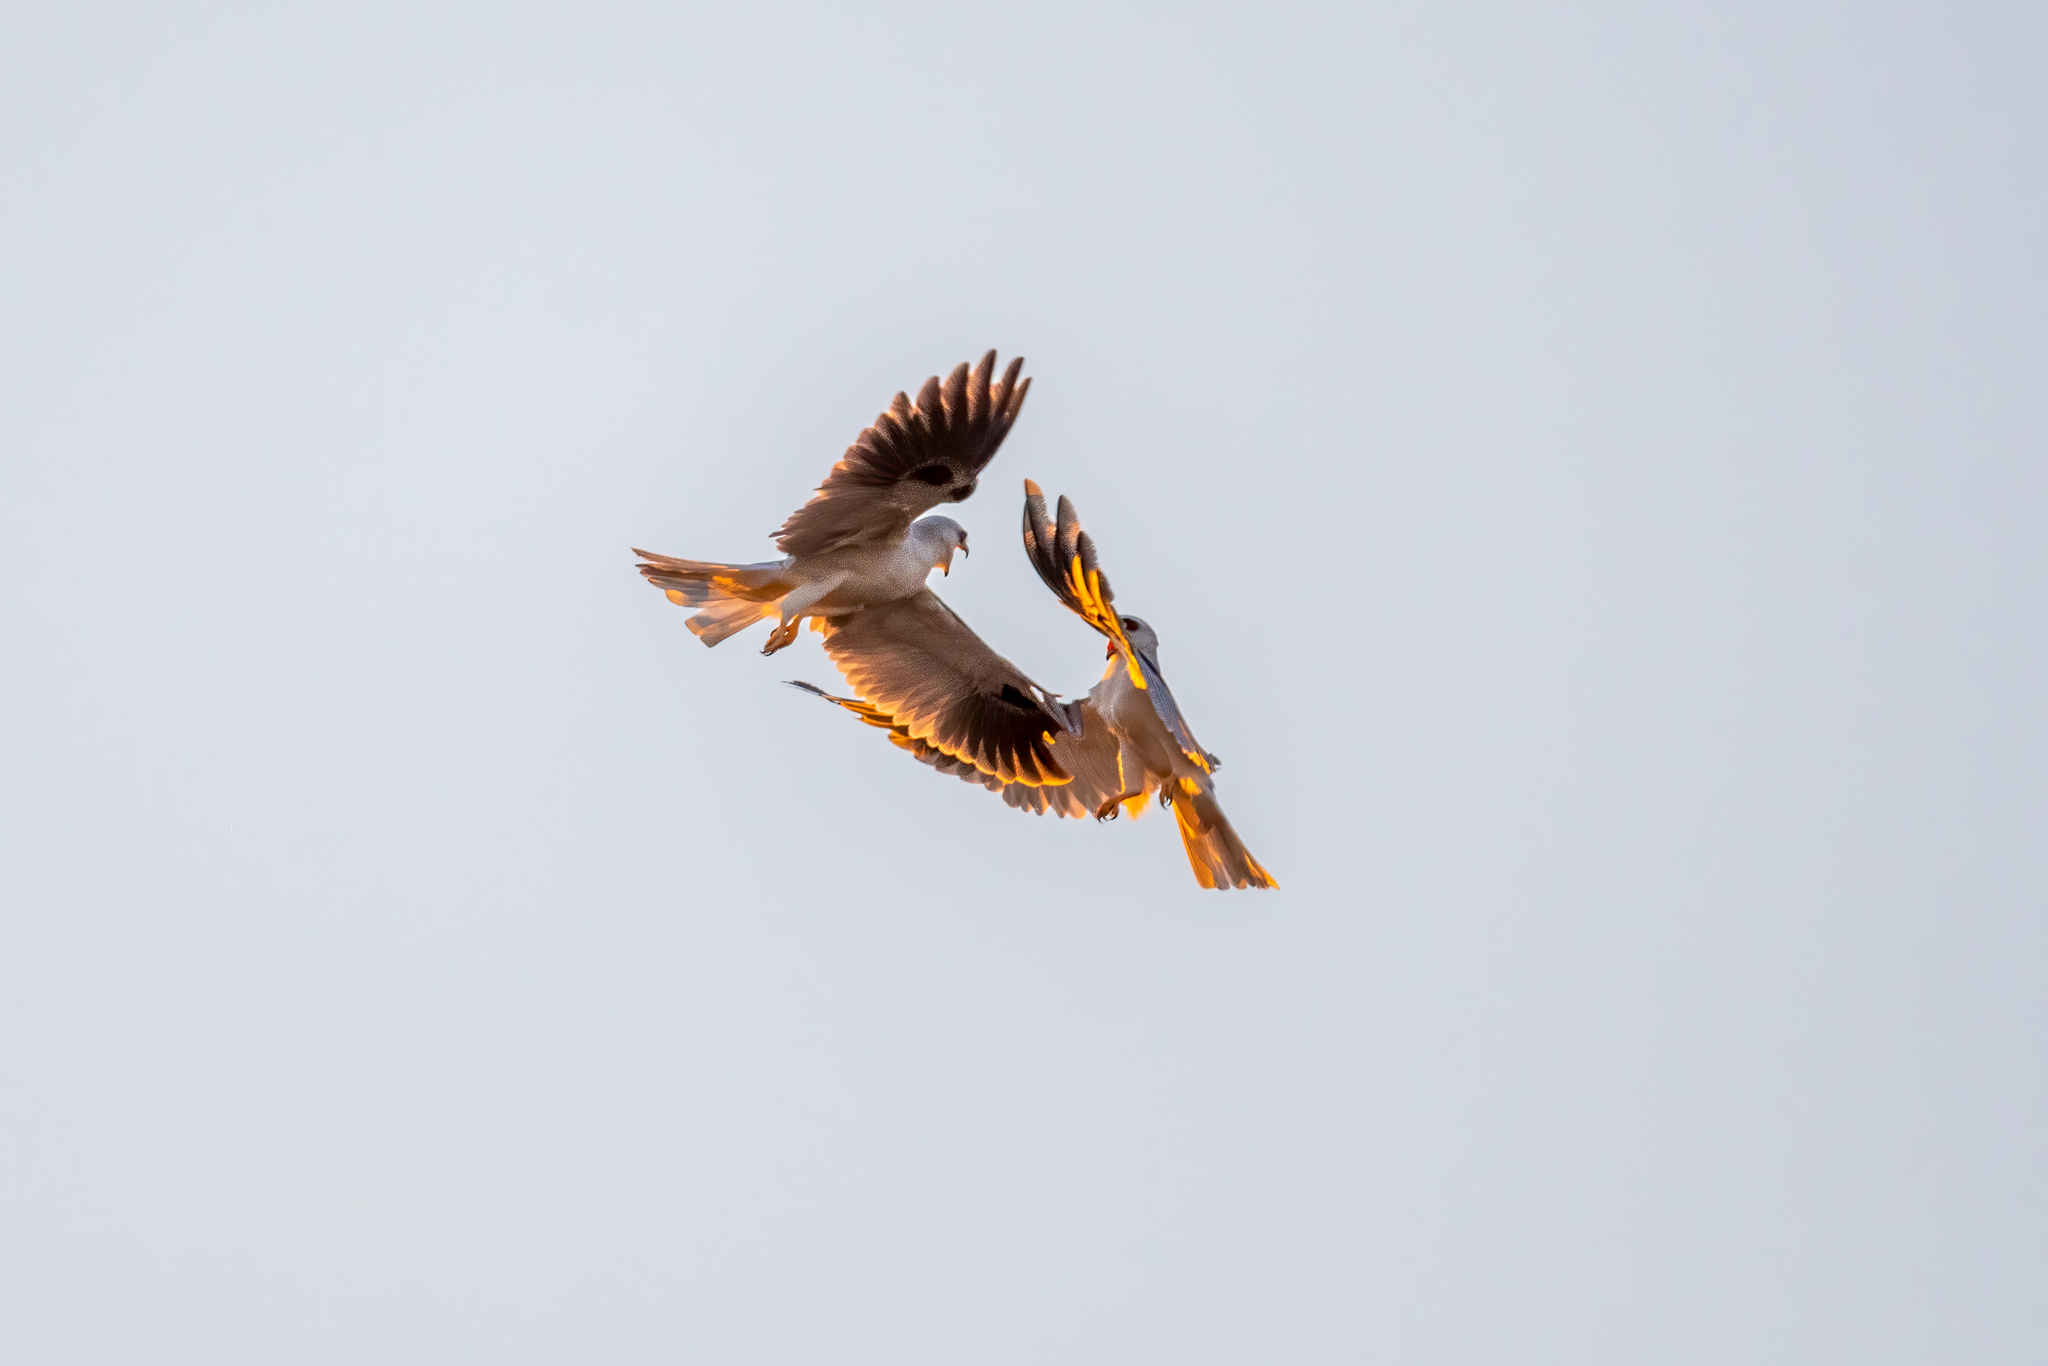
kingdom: Animalia
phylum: Chordata
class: Aves
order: Accipitriformes
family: Accipitridae
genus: Elanus
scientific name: Elanus leucurus
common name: White-tailed kite
